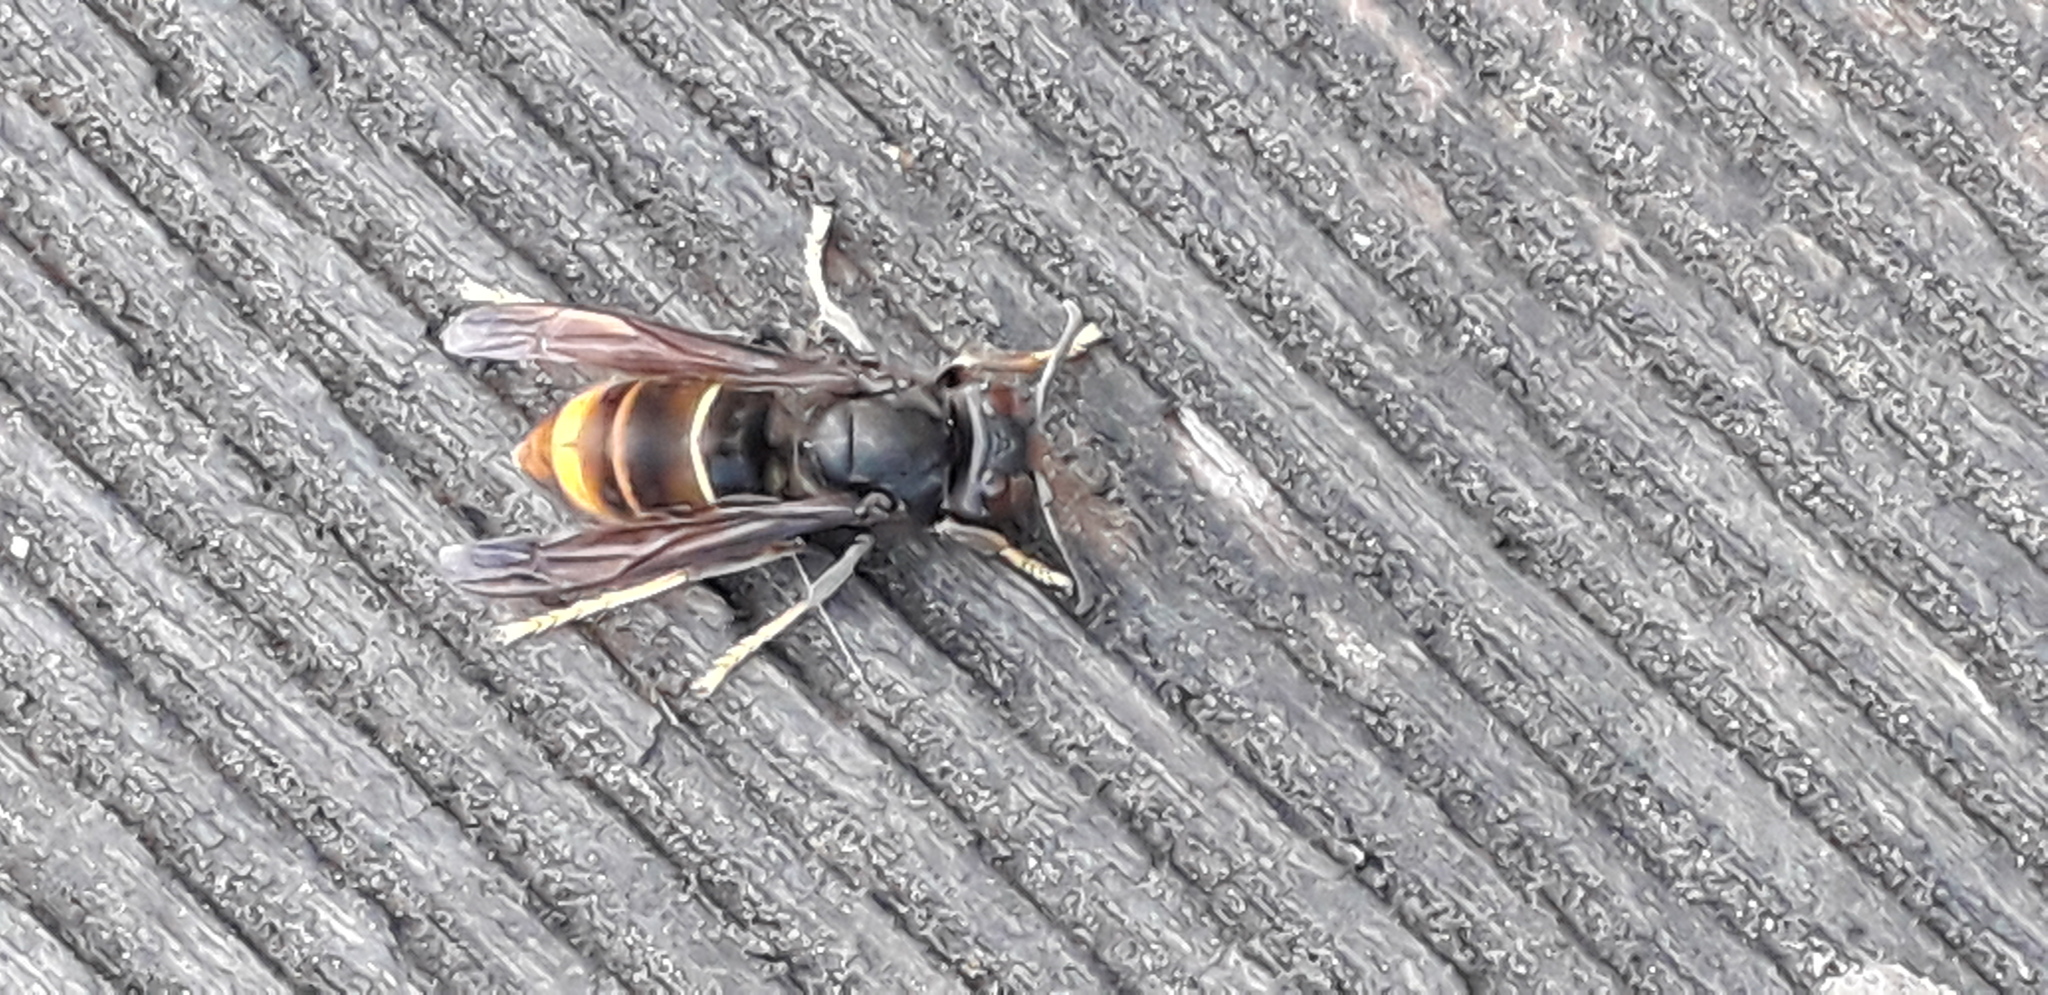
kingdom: Animalia
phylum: Arthropoda
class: Insecta
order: Hymenoptera
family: Vespidae
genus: Vespa
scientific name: Vespa velutina
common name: Asian hornet
